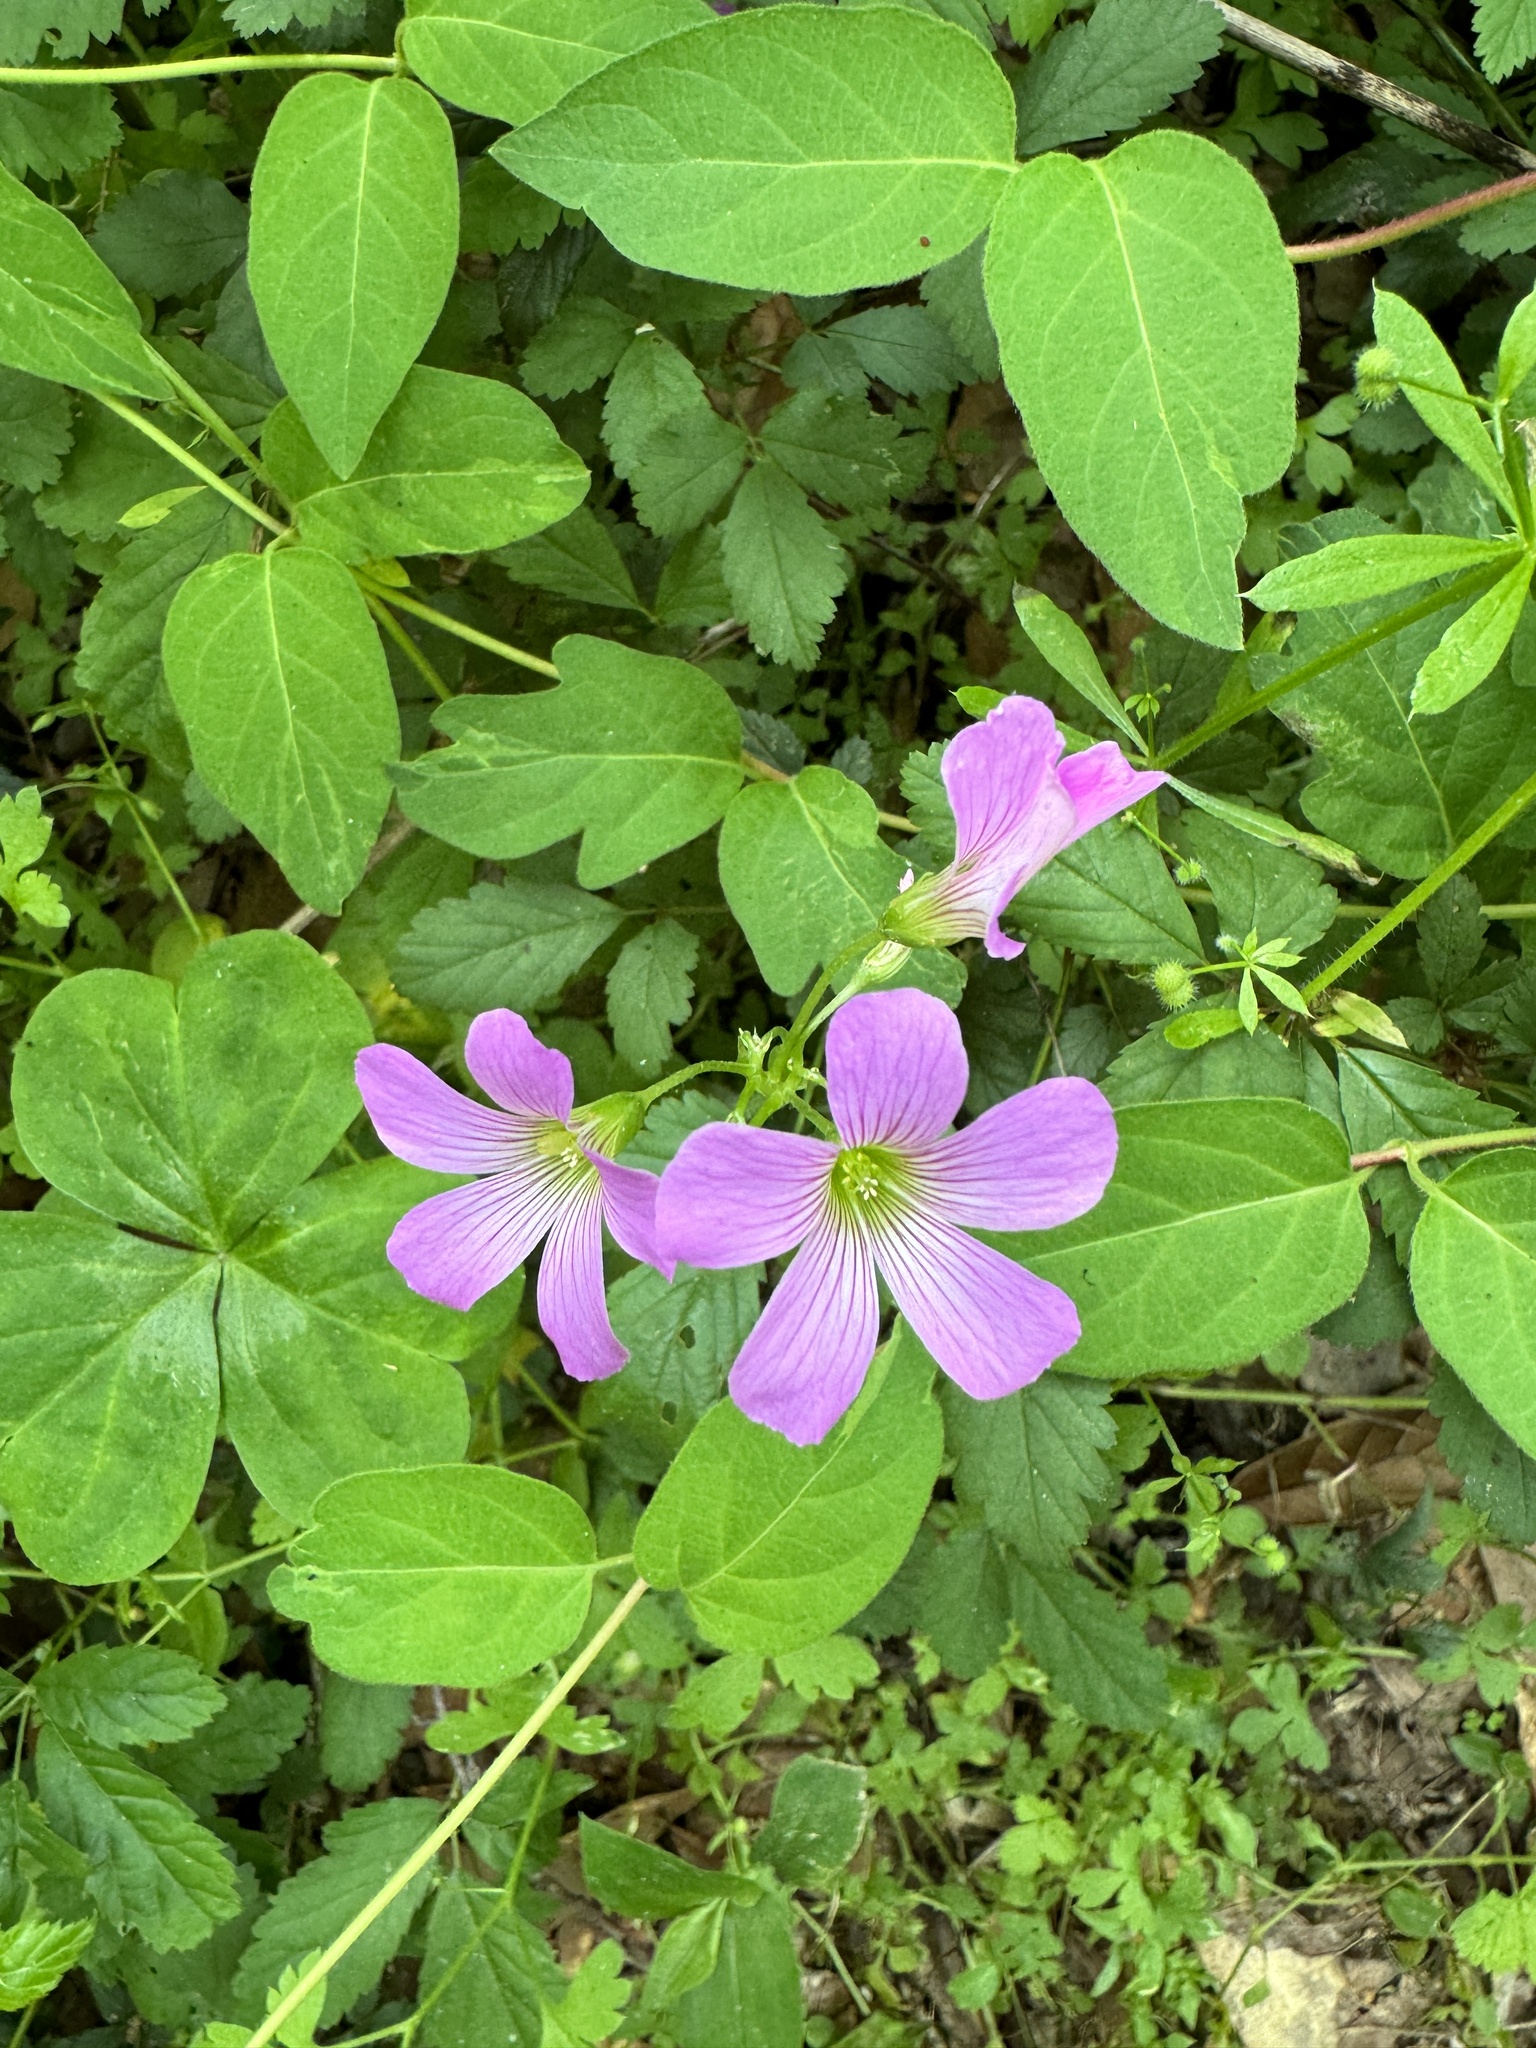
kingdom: Plantae
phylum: Tracheophyta
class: Magnoliopsida
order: Oxalidales
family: Oxalidaceae
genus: Oxalis
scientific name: Oxalis debilis
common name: Large-flowered pink-sorrel
